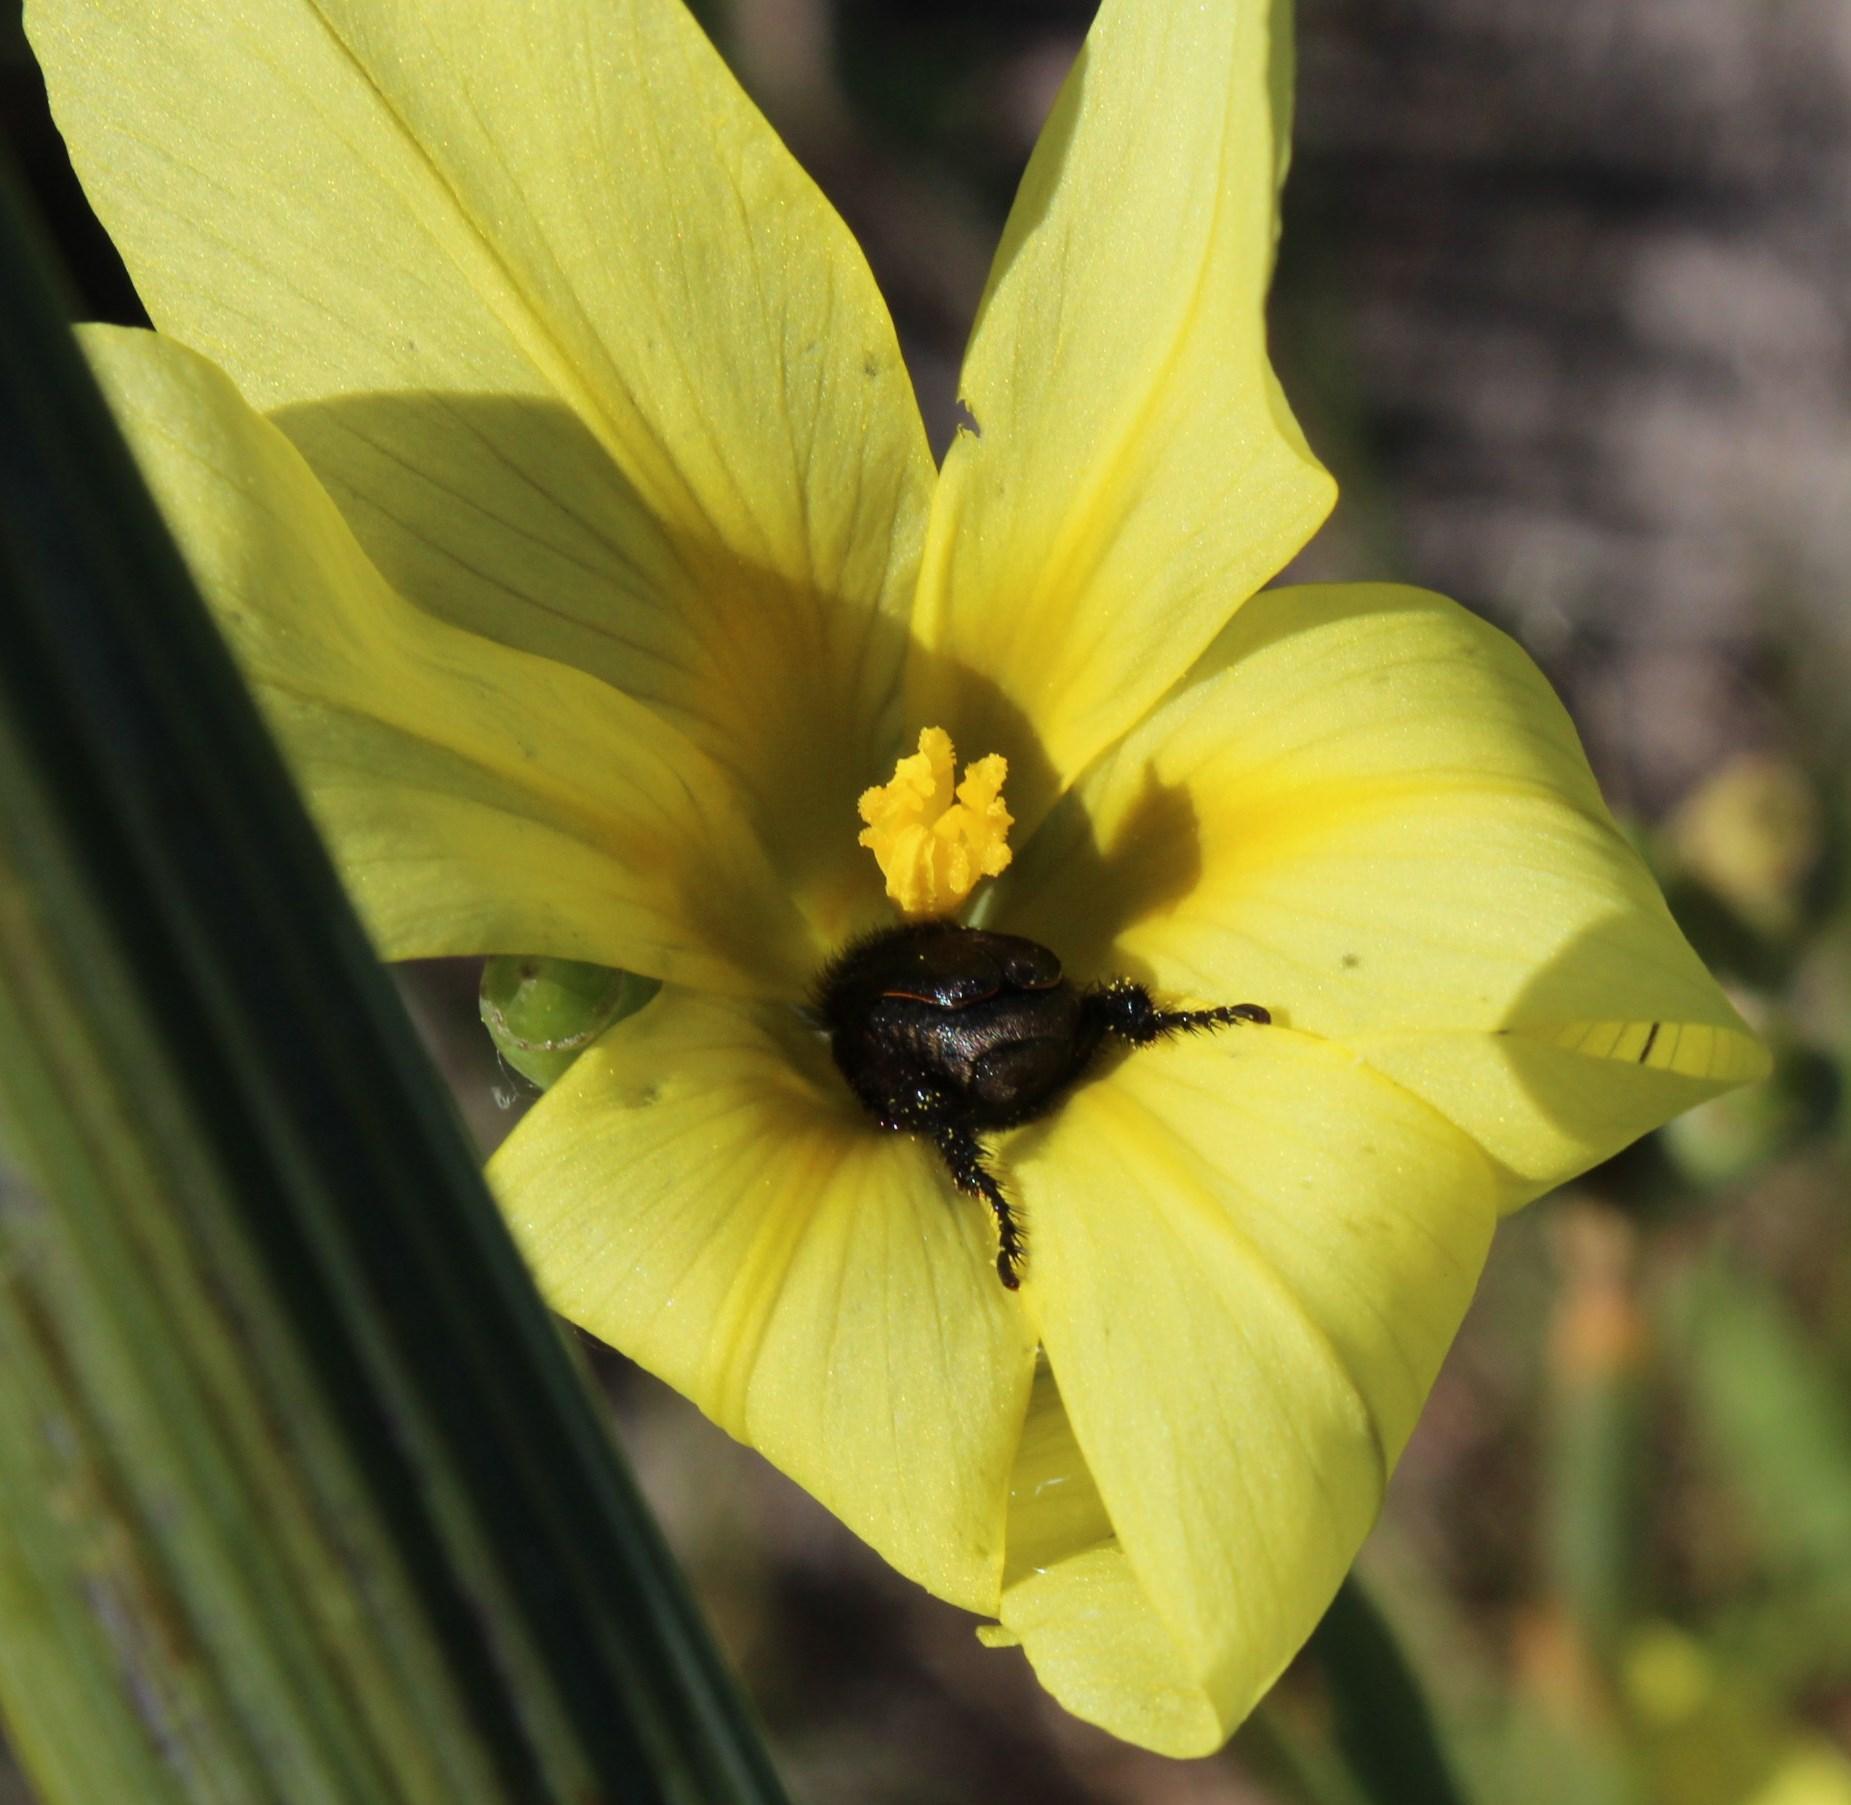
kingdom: Plantae
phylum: Tracheophyta
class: Liliopsida
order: Asparagales
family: Iridaceae
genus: Moraea
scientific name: Moraea collina
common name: Cape-tulip
